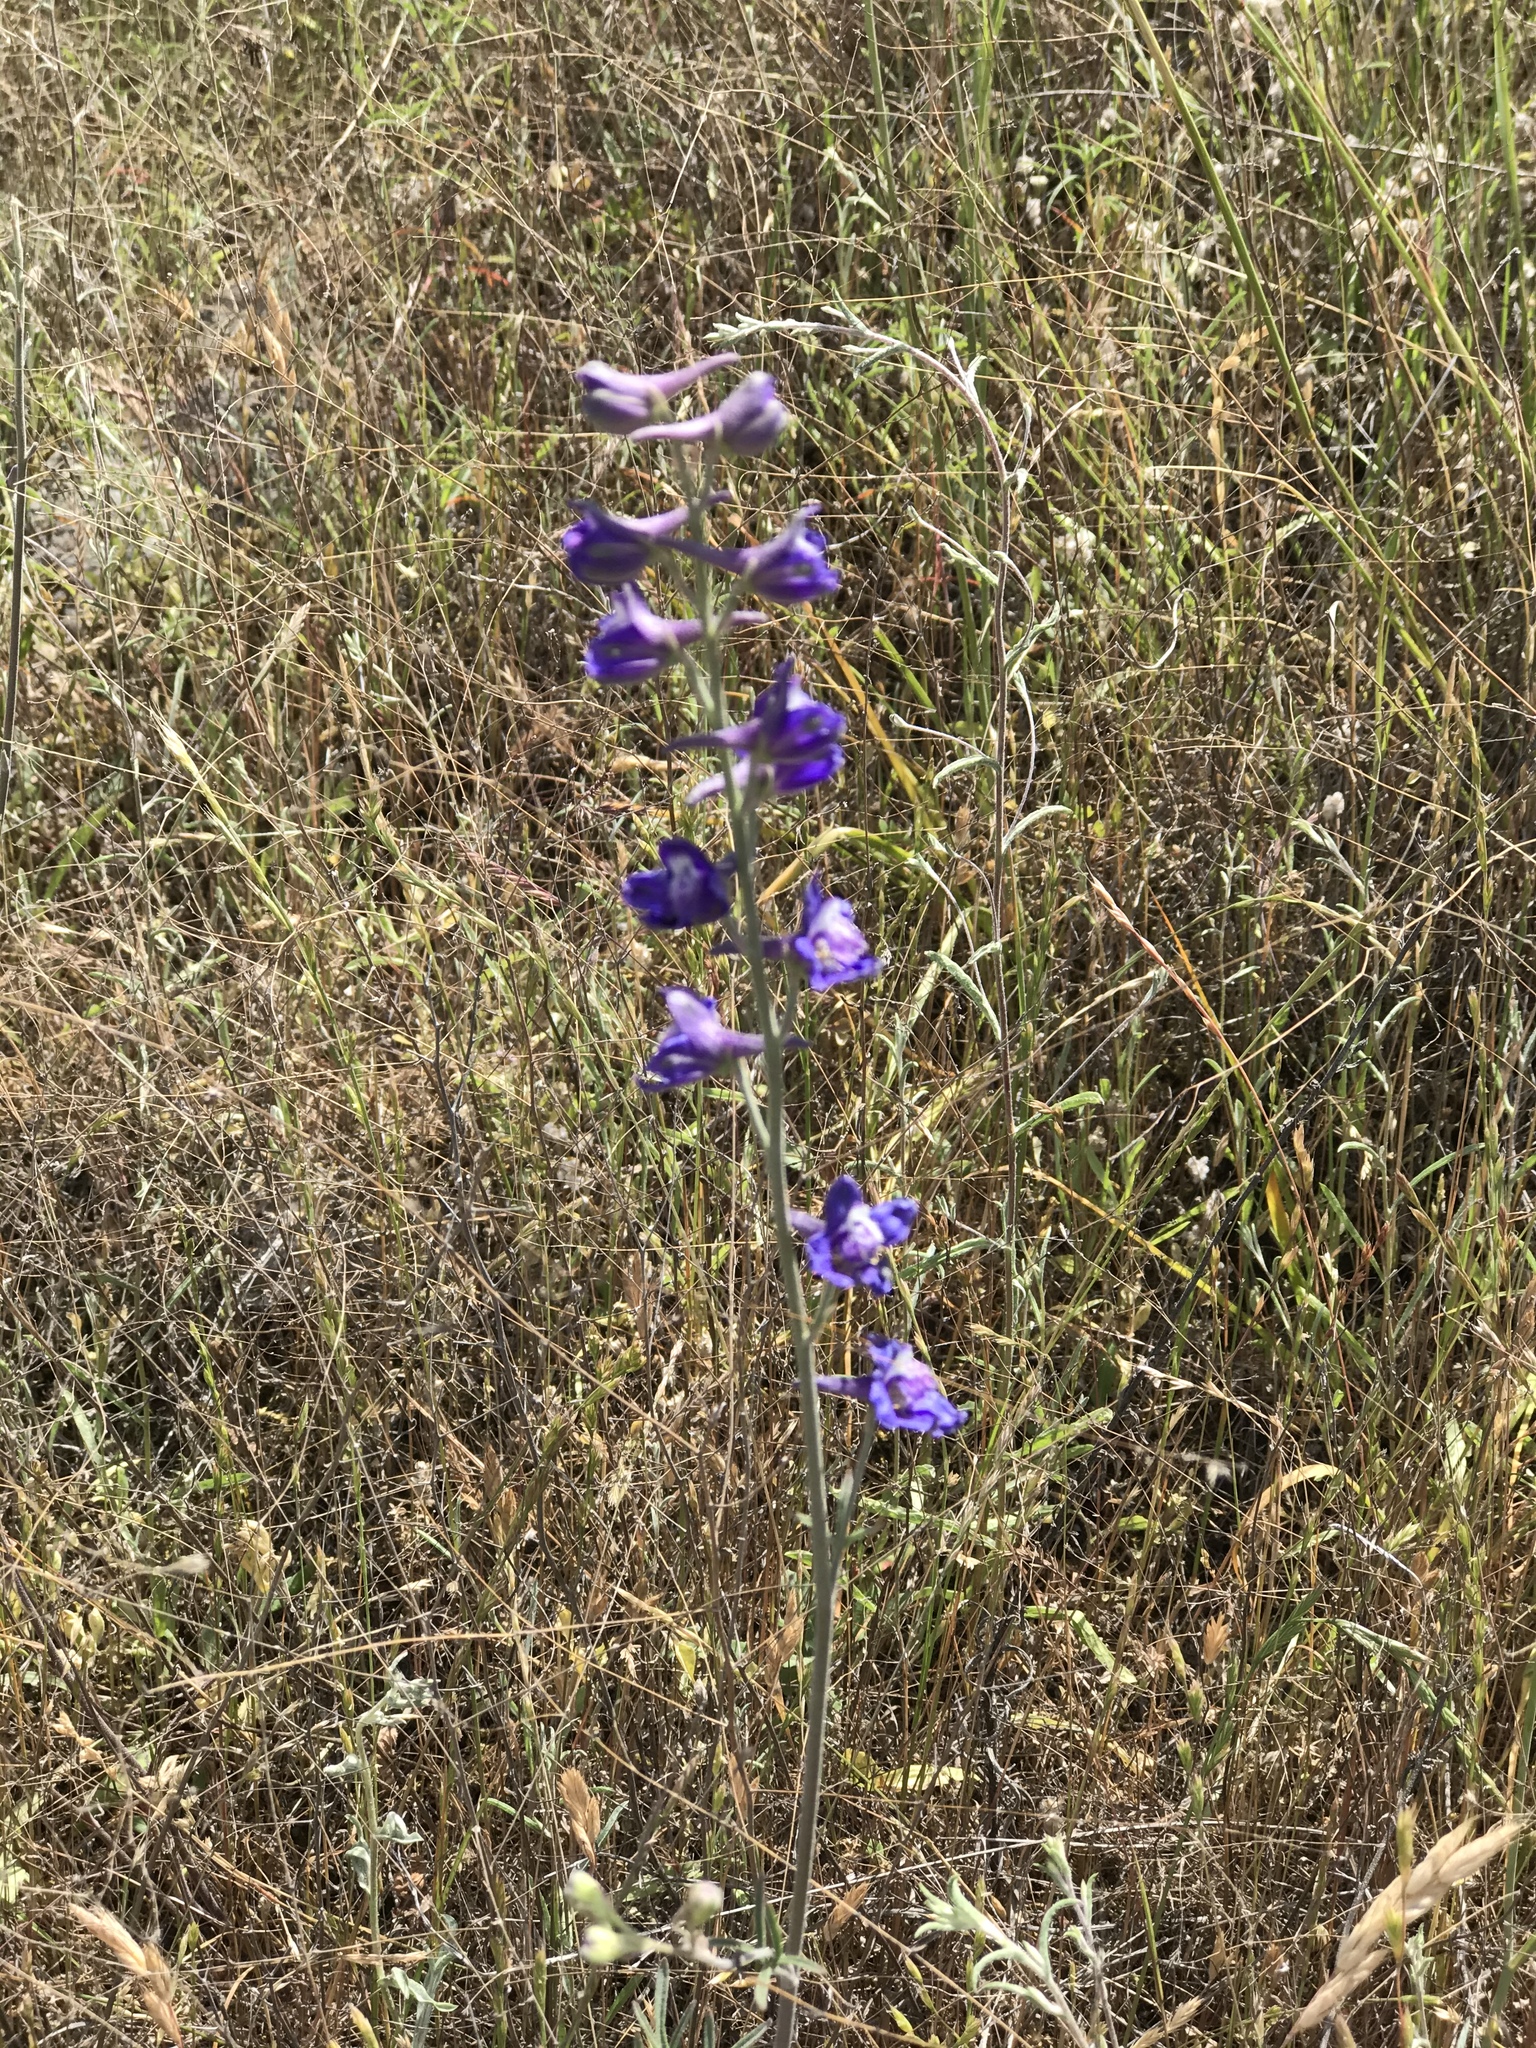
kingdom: Plantae
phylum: Tracheophyta
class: Magnoliopsida
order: Ranunculales
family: Ranunculaceae
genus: Delphinium
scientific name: Delphinium hesperium
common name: Western larkspur
